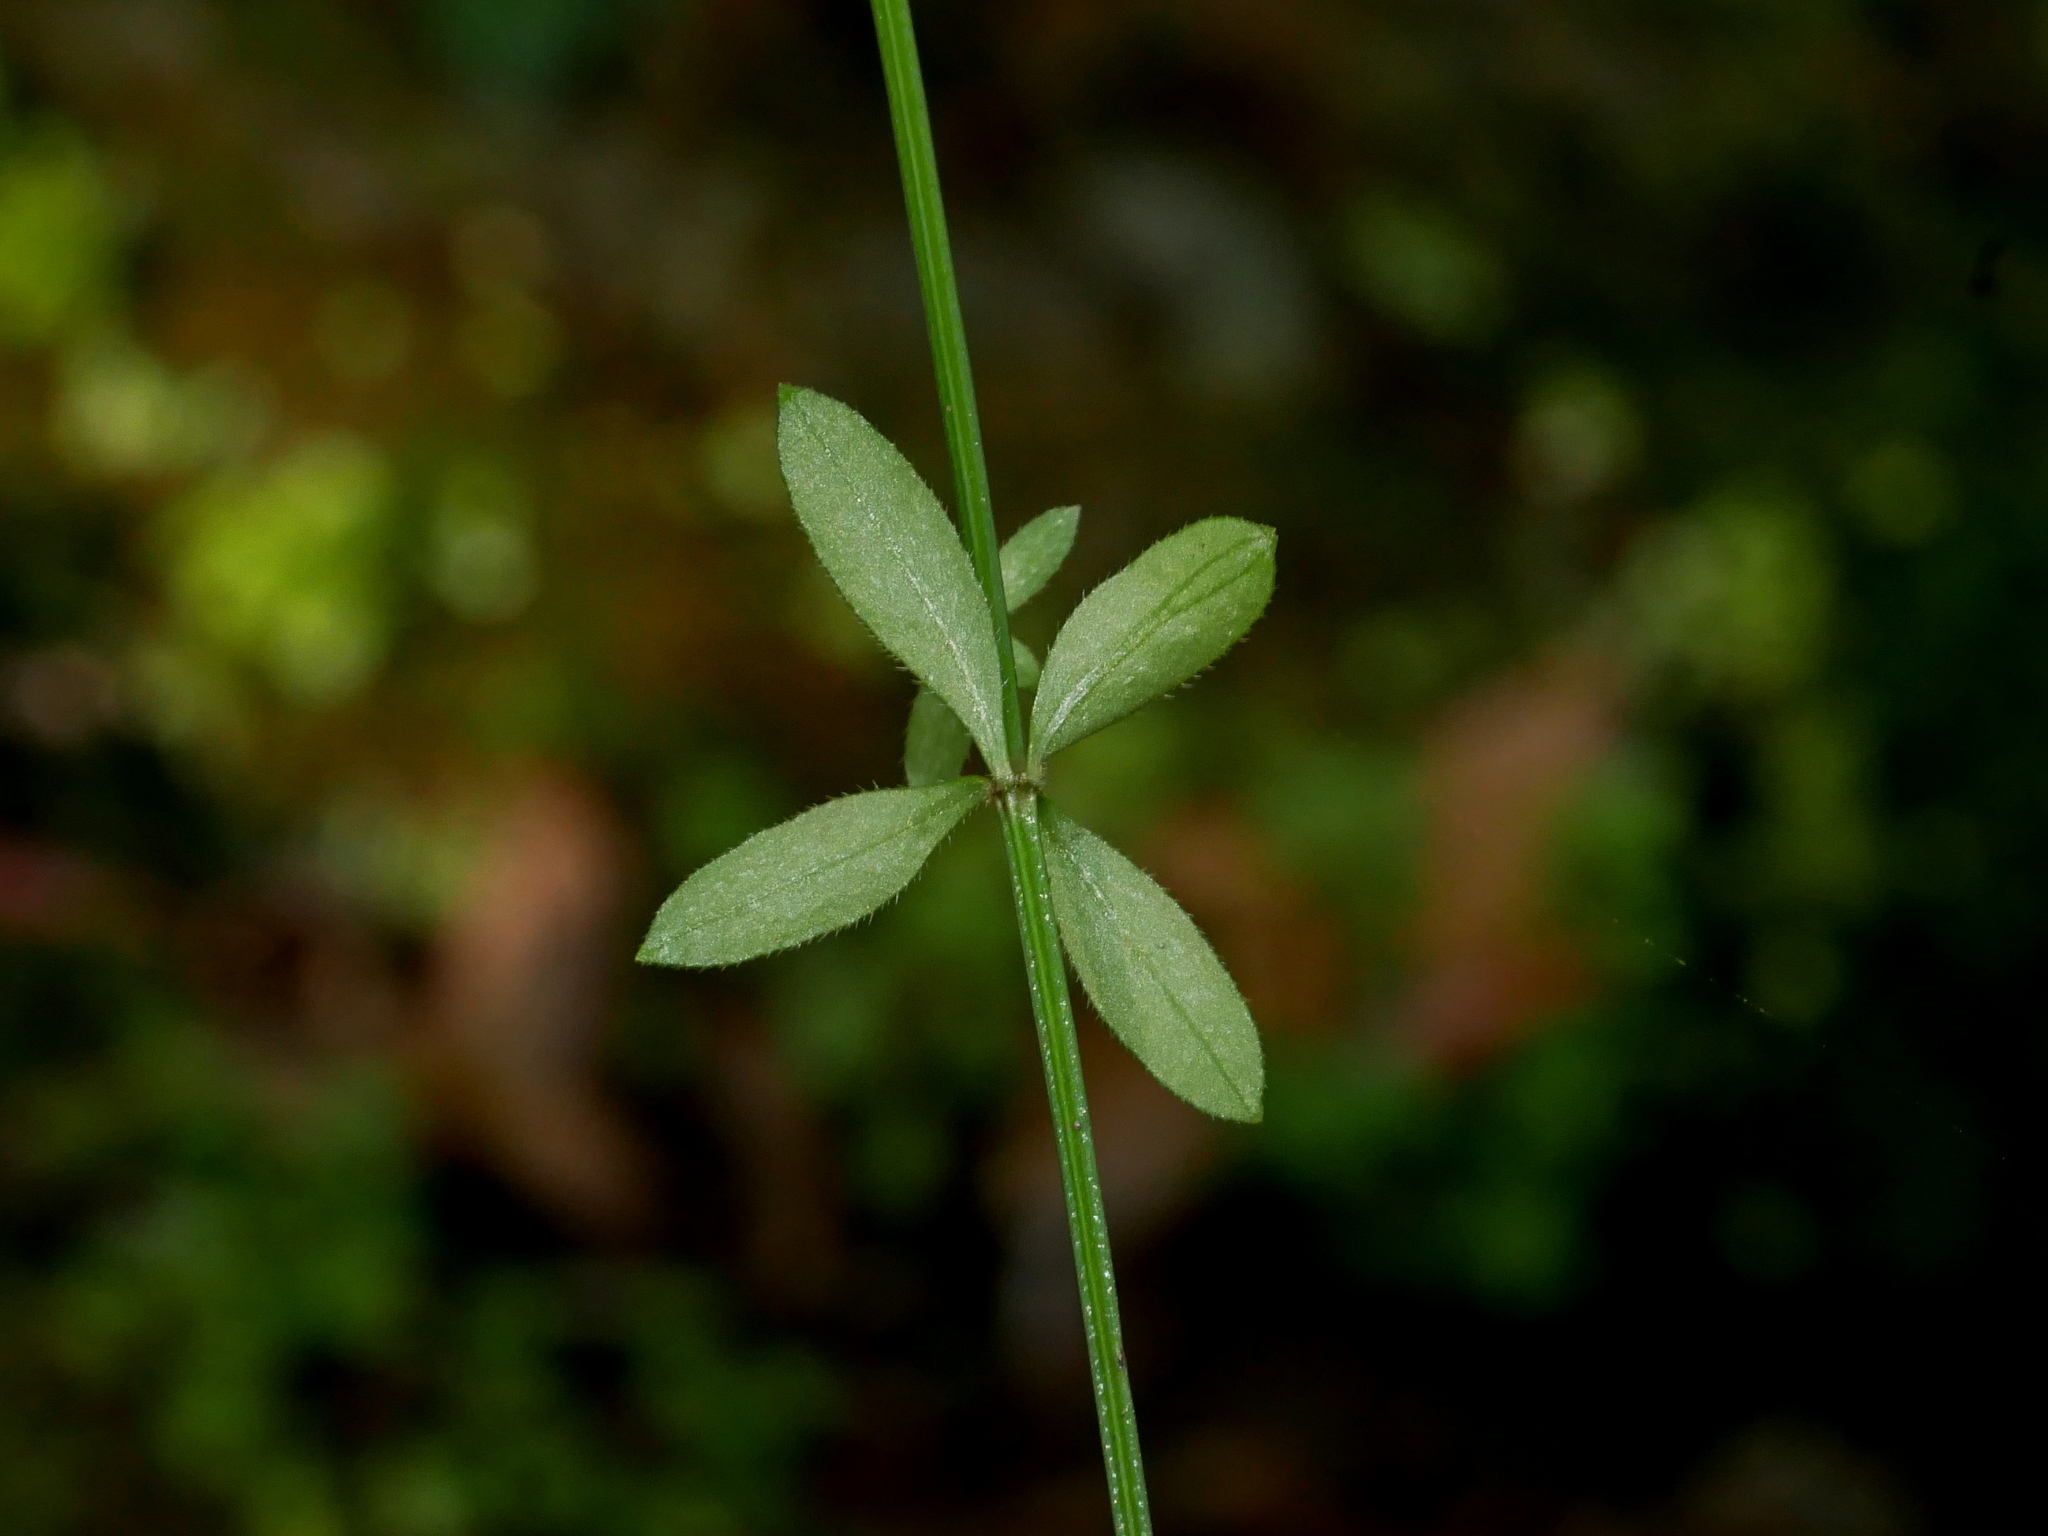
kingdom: Plantae
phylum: Tracheophyta
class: Magnoliopsida
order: Gentianales
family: Rubiaceae
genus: Galium
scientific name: Galium bungei
